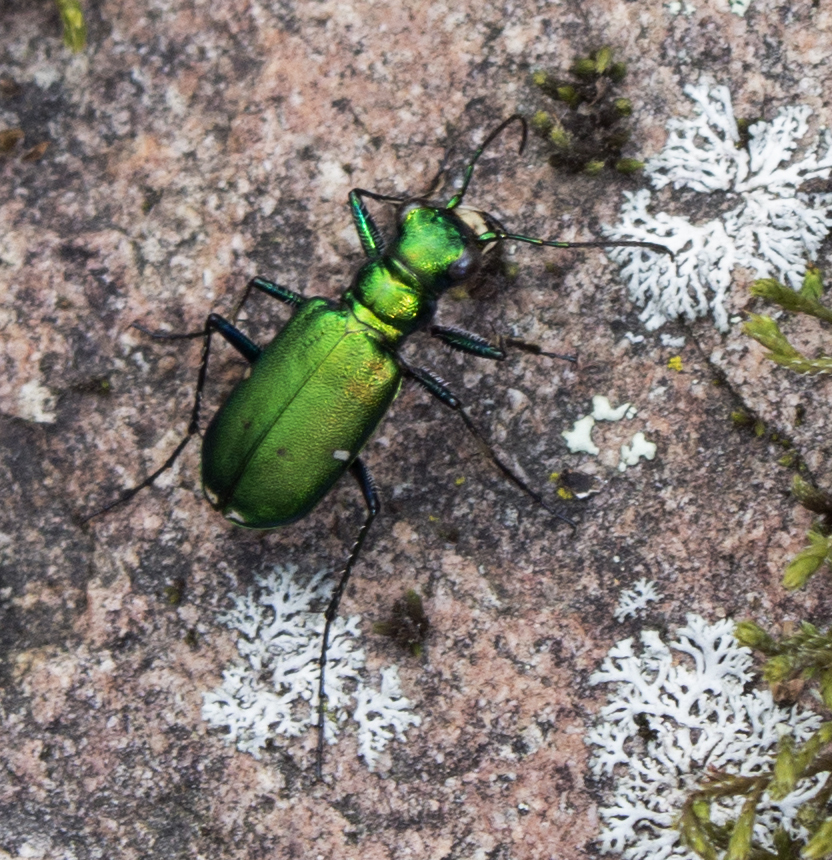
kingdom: Animalia
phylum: Arthropoda
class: Insecta
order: Coleoptera
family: Carabidae
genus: Cicindela
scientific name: Cicindela sexguttata
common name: Six-spotted tiger beetle
